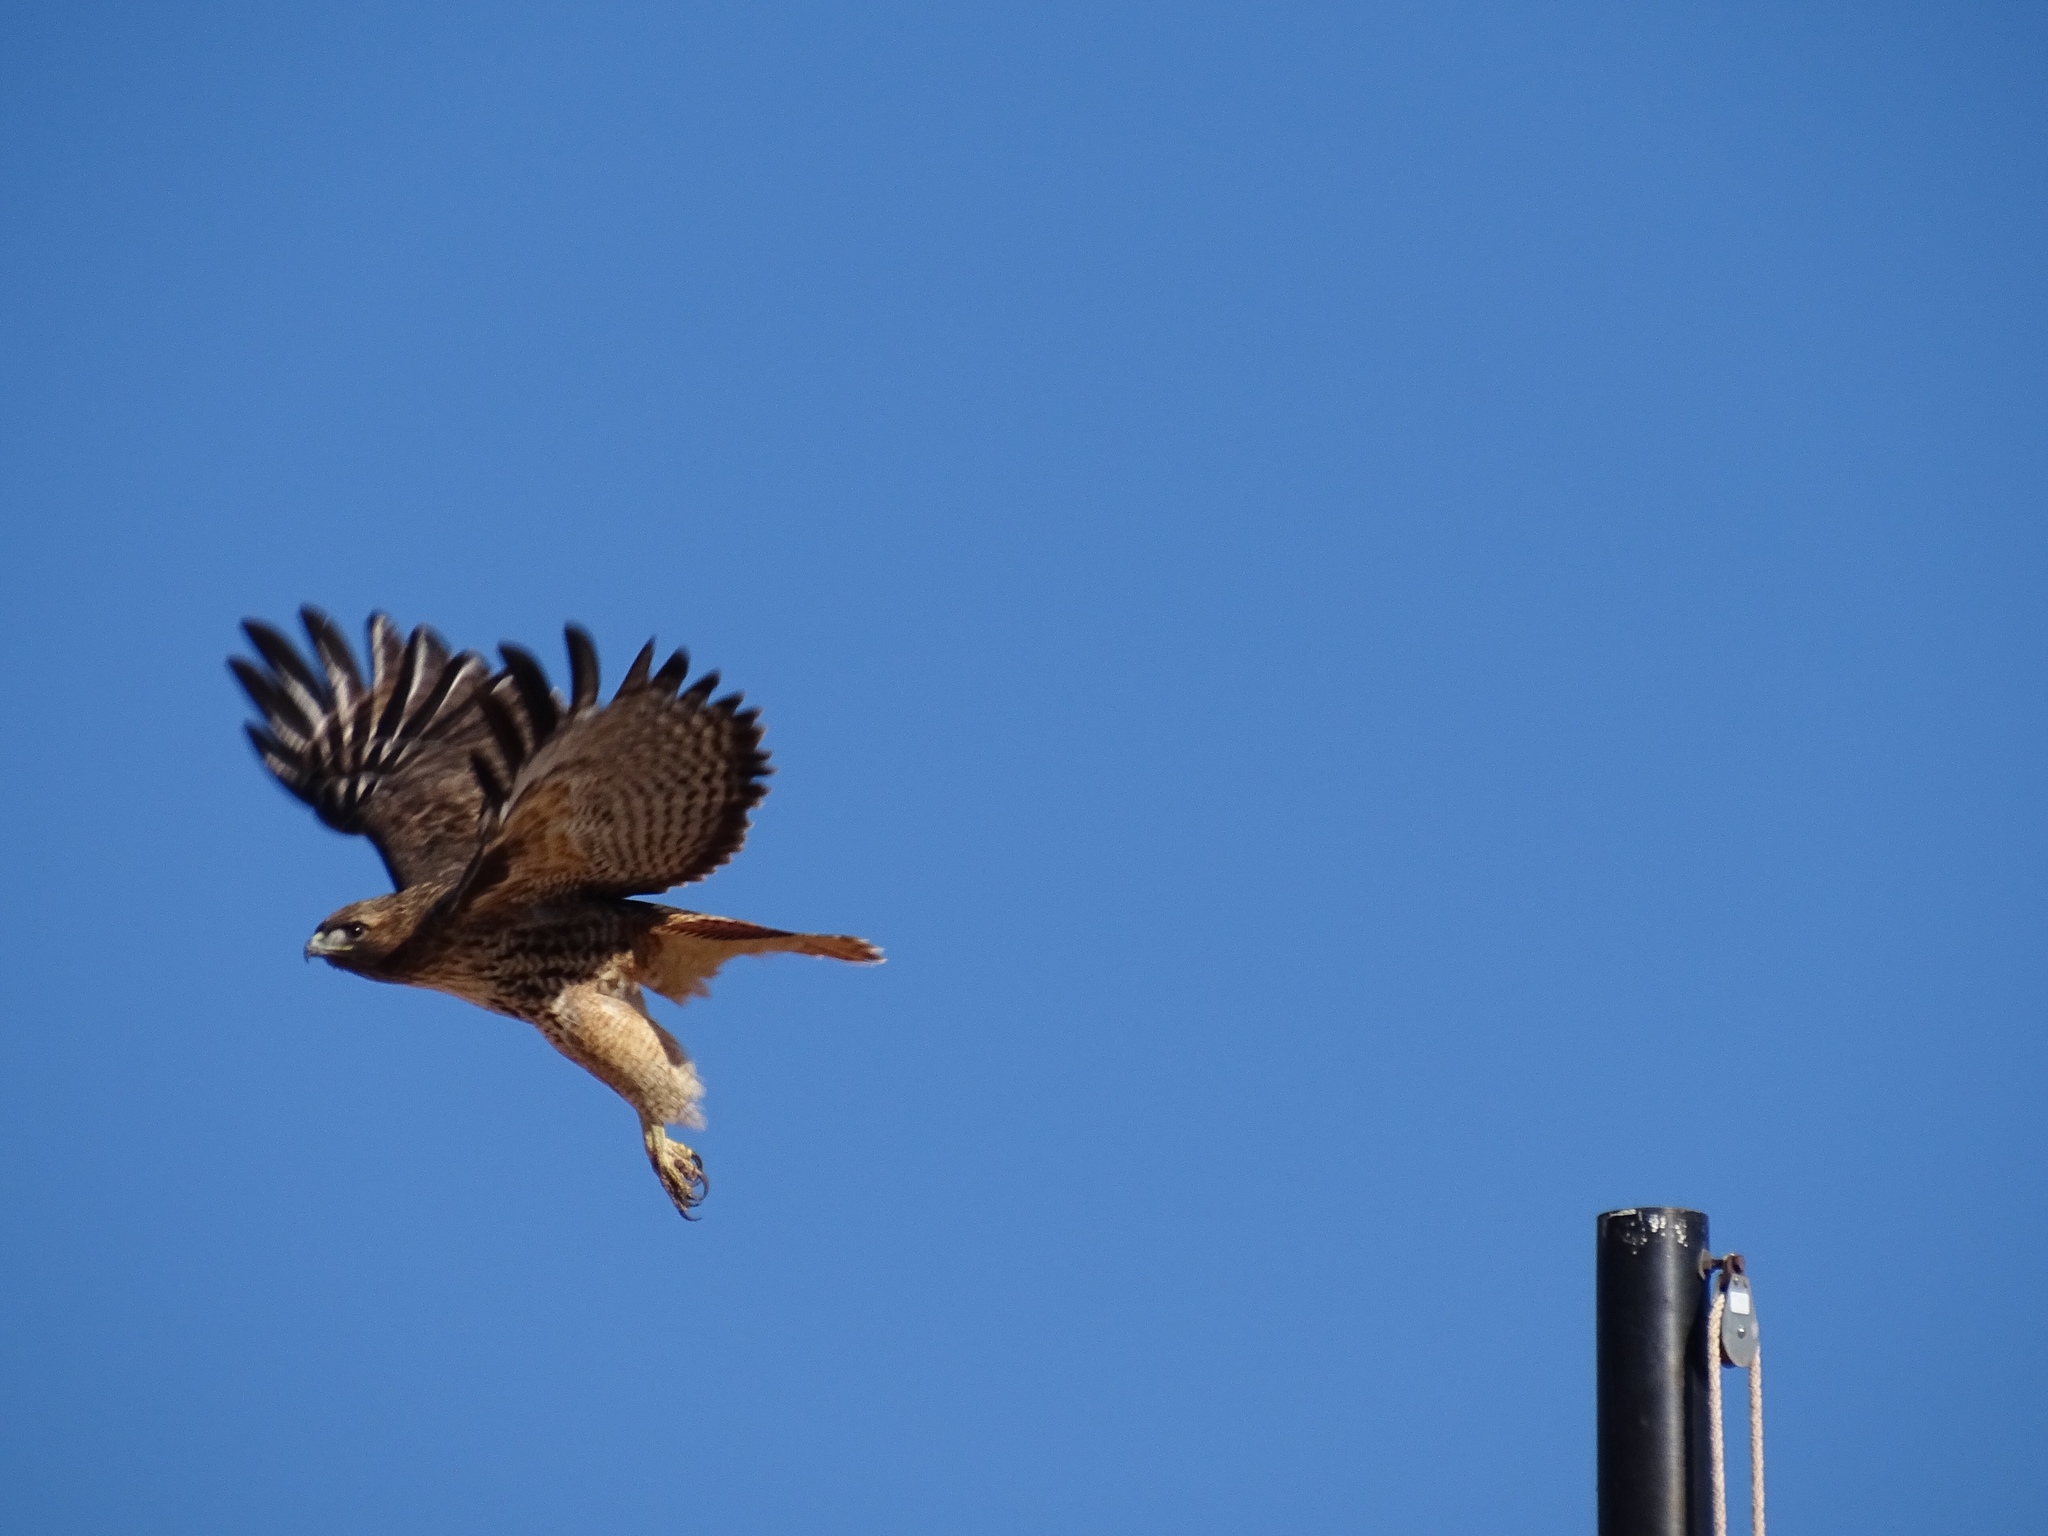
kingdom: Animalia
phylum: Chordata
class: Aves
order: Accipitriformes
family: Accipitridae
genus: Buteo
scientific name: Buteo jamaicensis
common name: Red-tailed hawk
